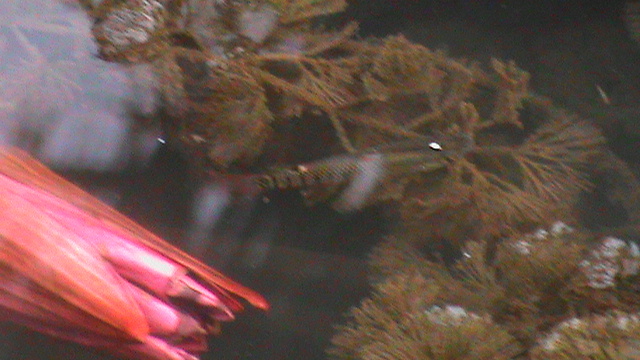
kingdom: Animalia
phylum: Chordata
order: Cyprinodontiformes
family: Aplocheilidae
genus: Aplocheilus
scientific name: Aplocheilus lineatus
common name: Striped panchax
